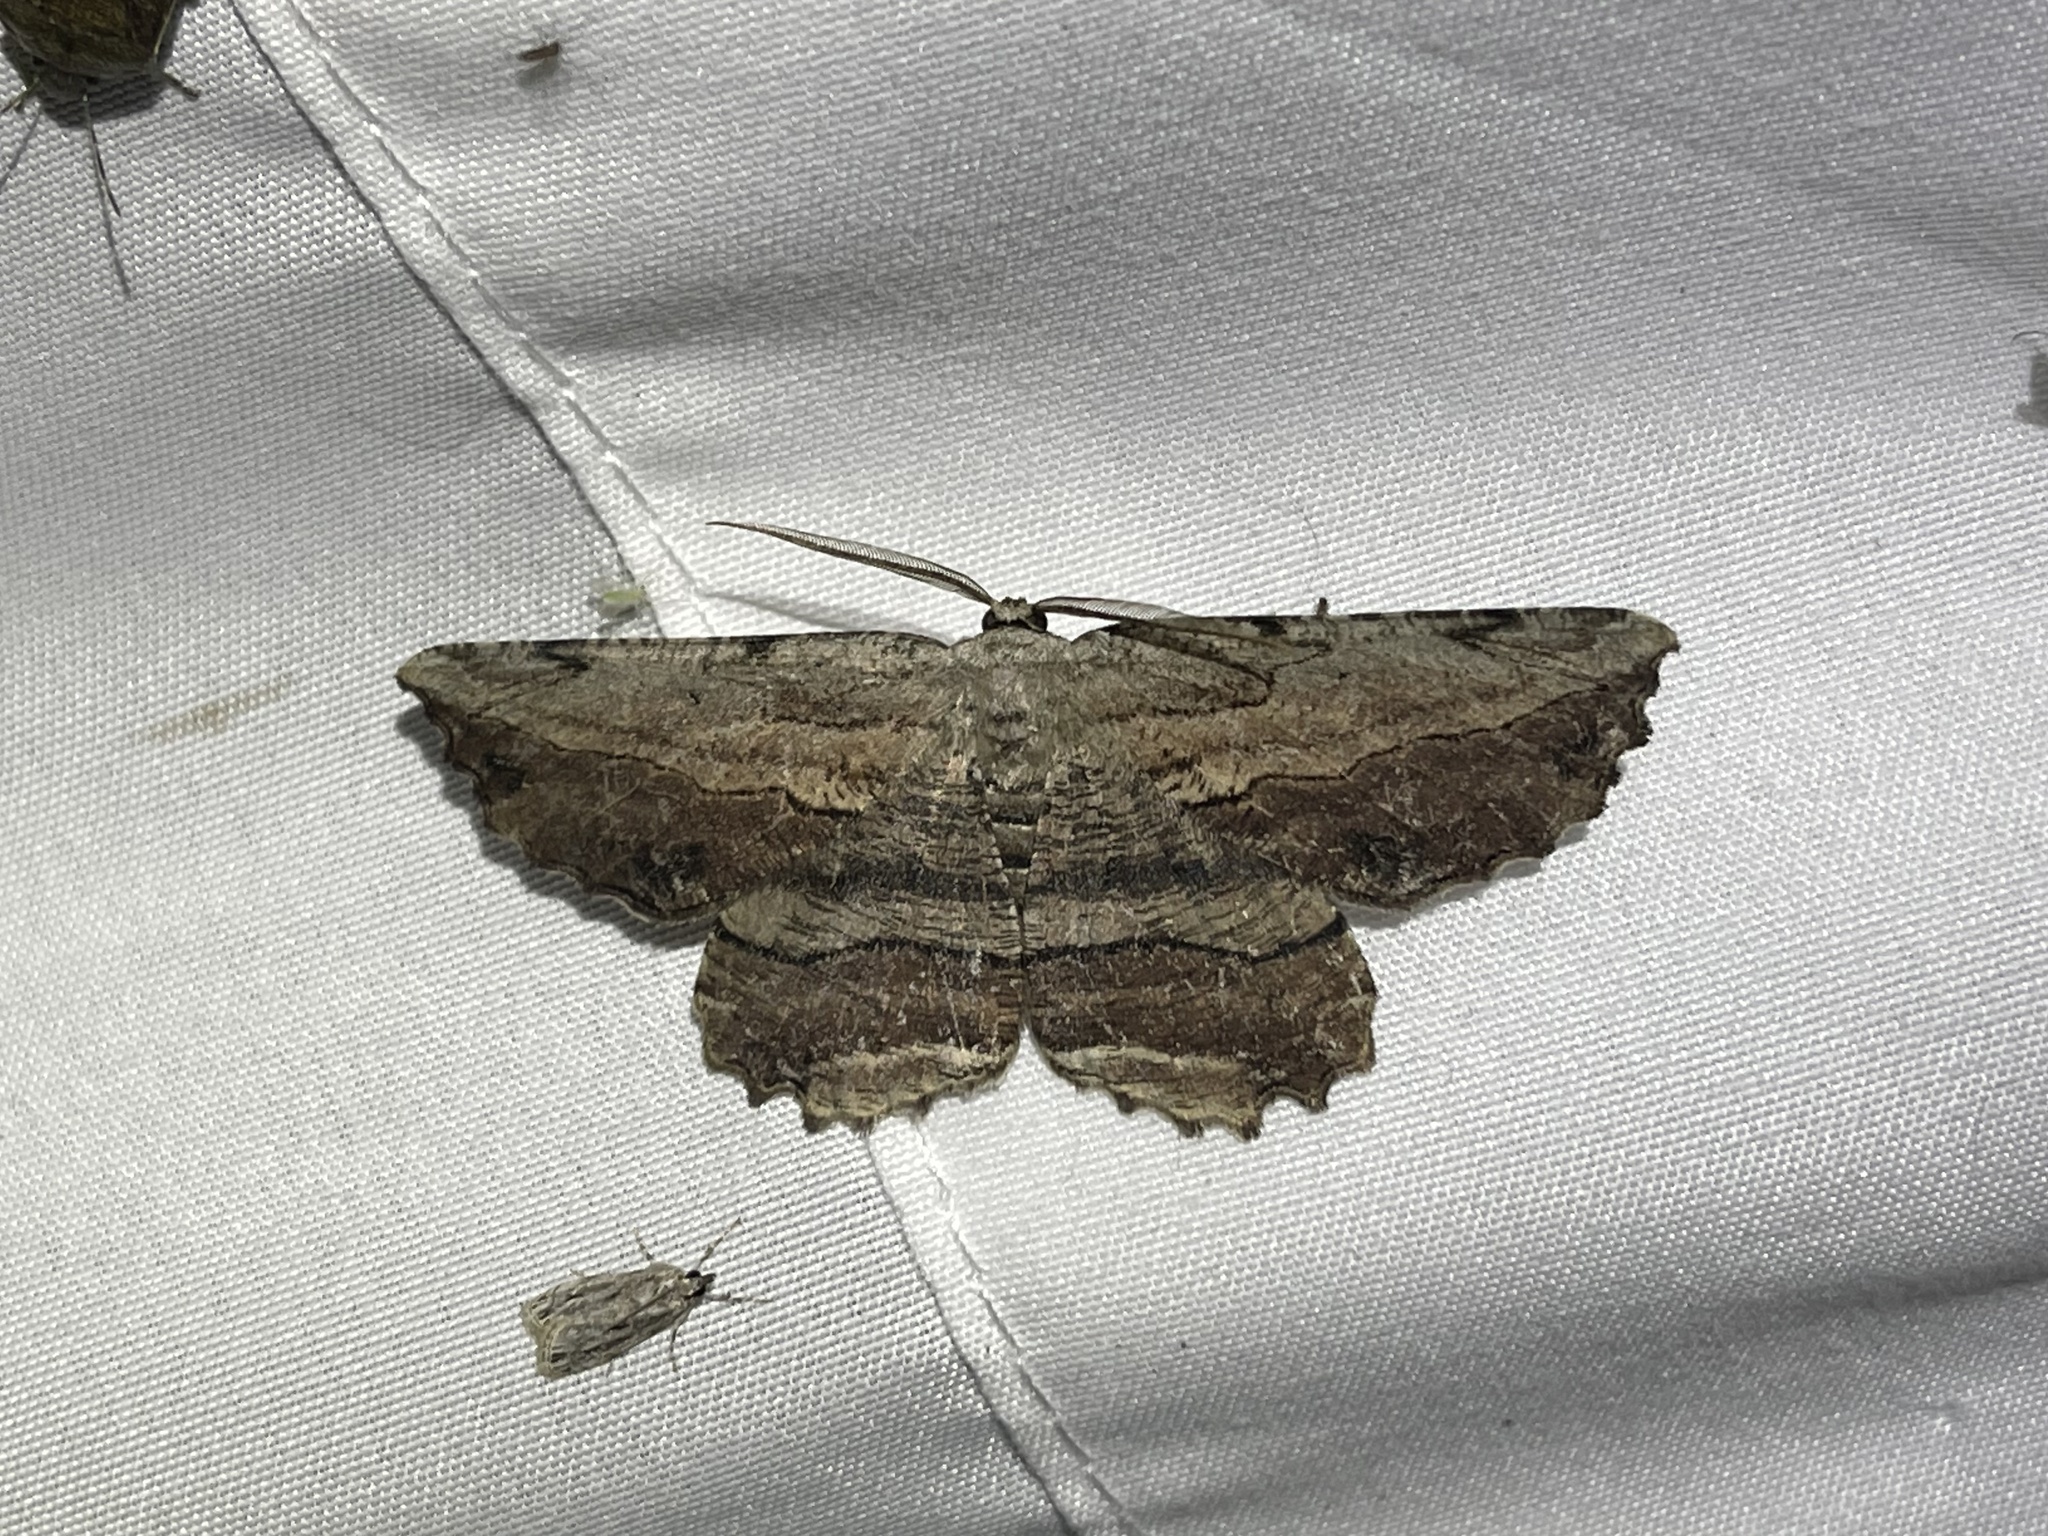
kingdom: Animalia
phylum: Arthropoda
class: Insecta
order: Lepidoptera
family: Geometridae
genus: Lytrosis
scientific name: Lytrosis unitaria
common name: Common lytrosis
